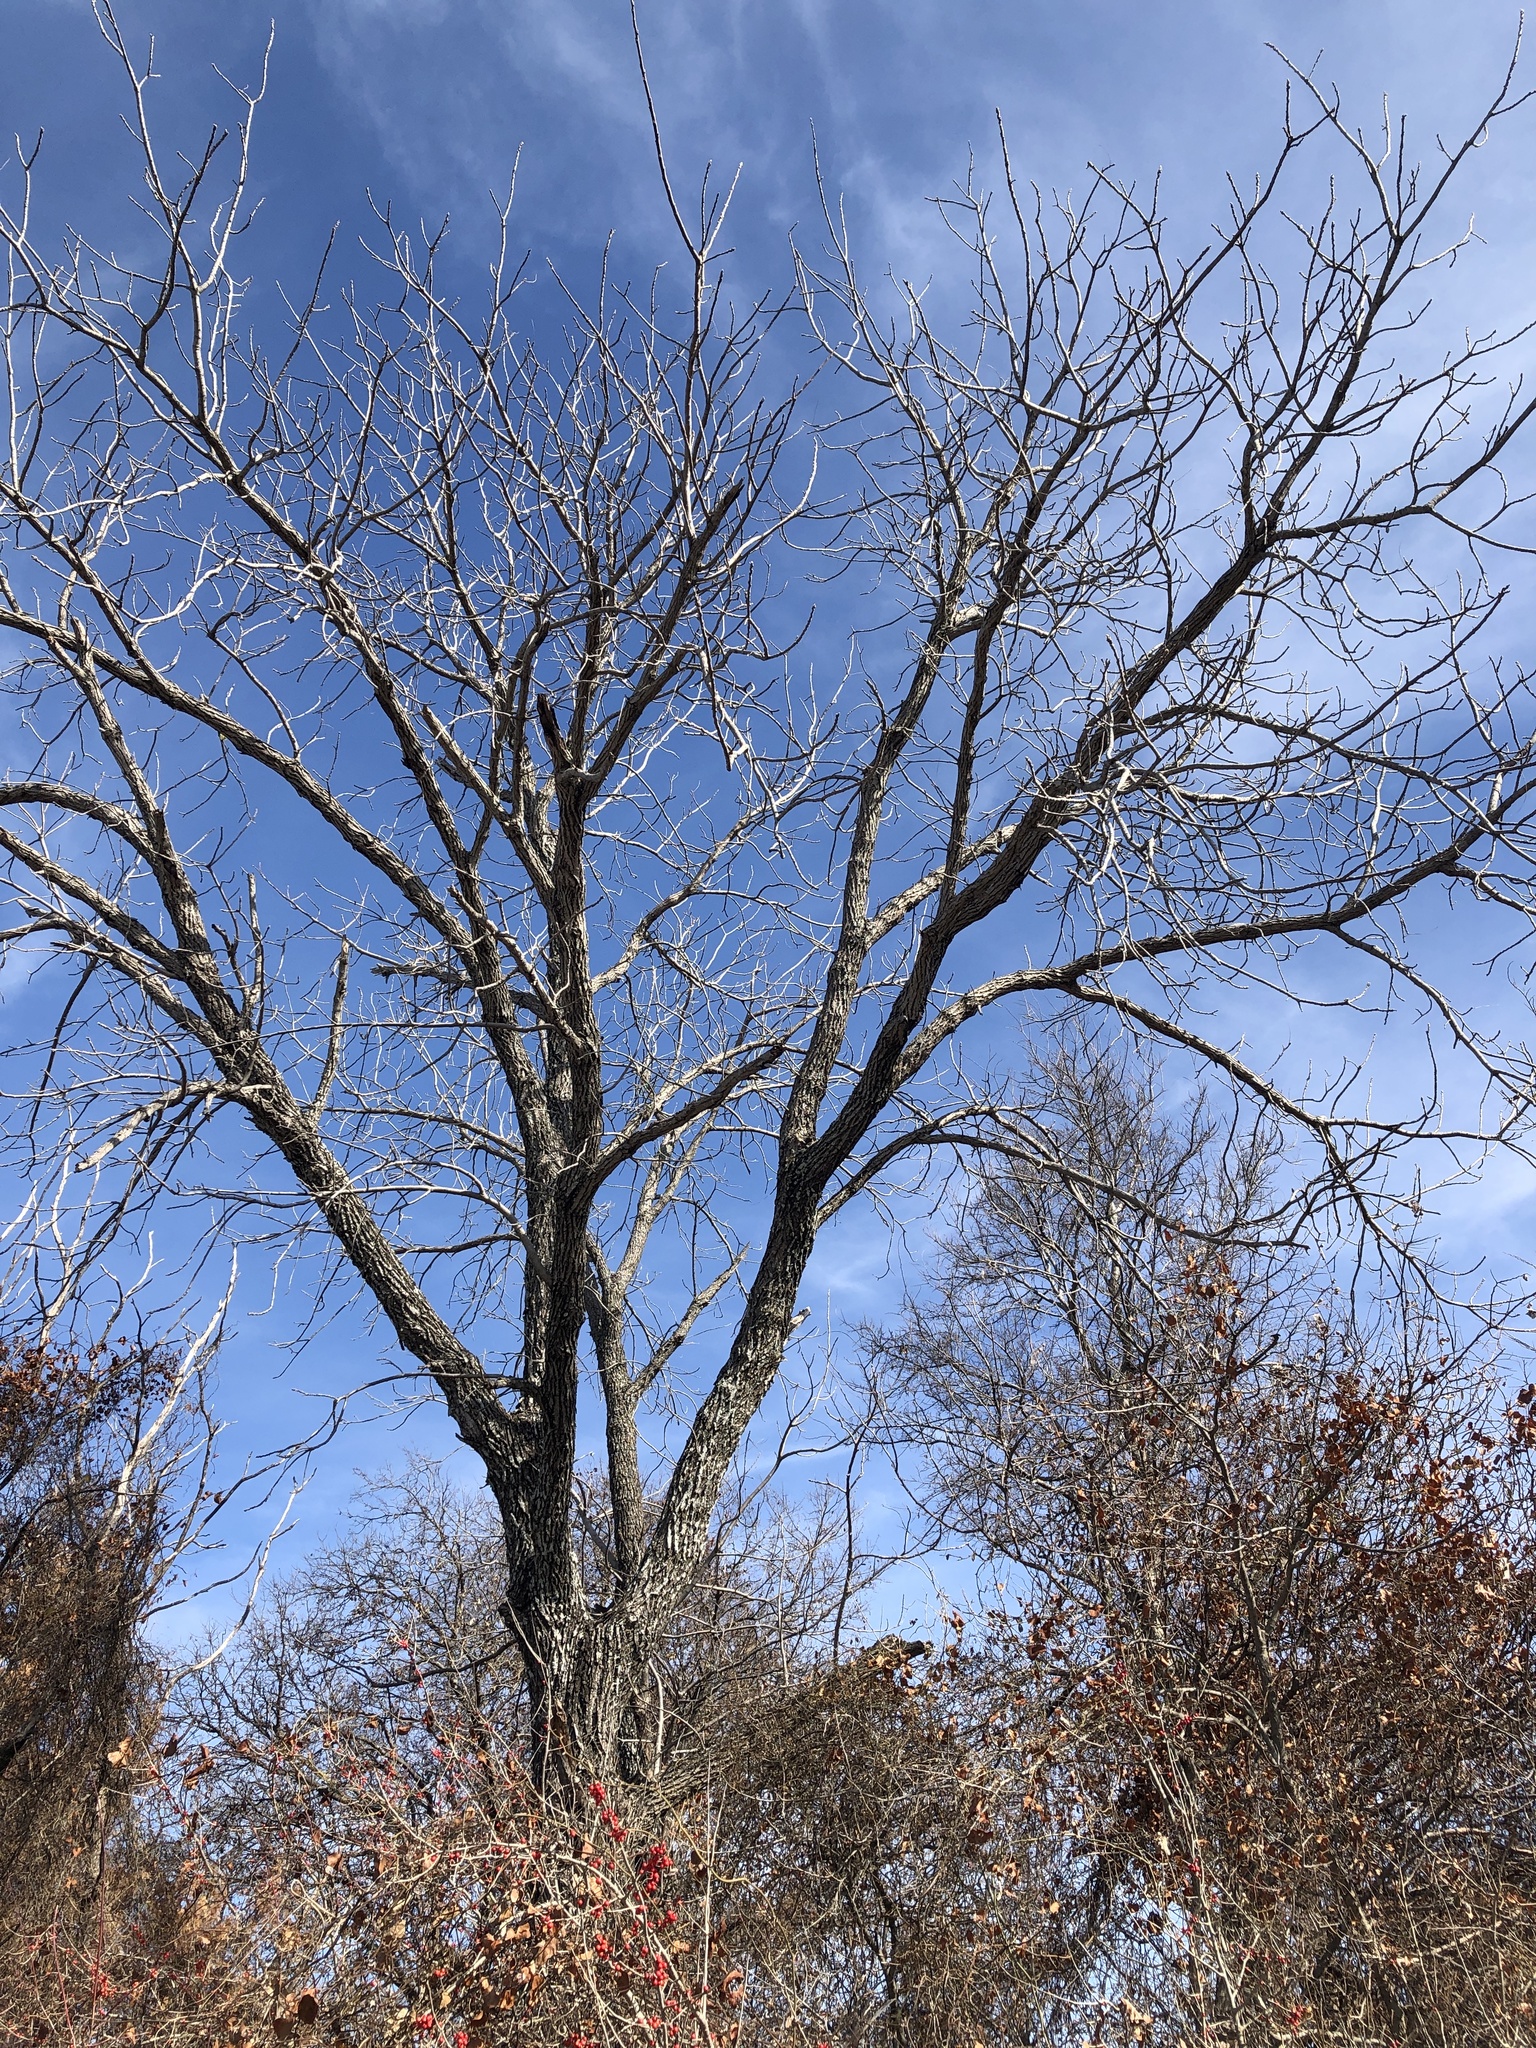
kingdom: Plantae
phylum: Tracheophyta
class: Magnoliopsida
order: Fagales
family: Juglandaceae
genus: Juglans
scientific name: Juglans nigra
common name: Black walnut
